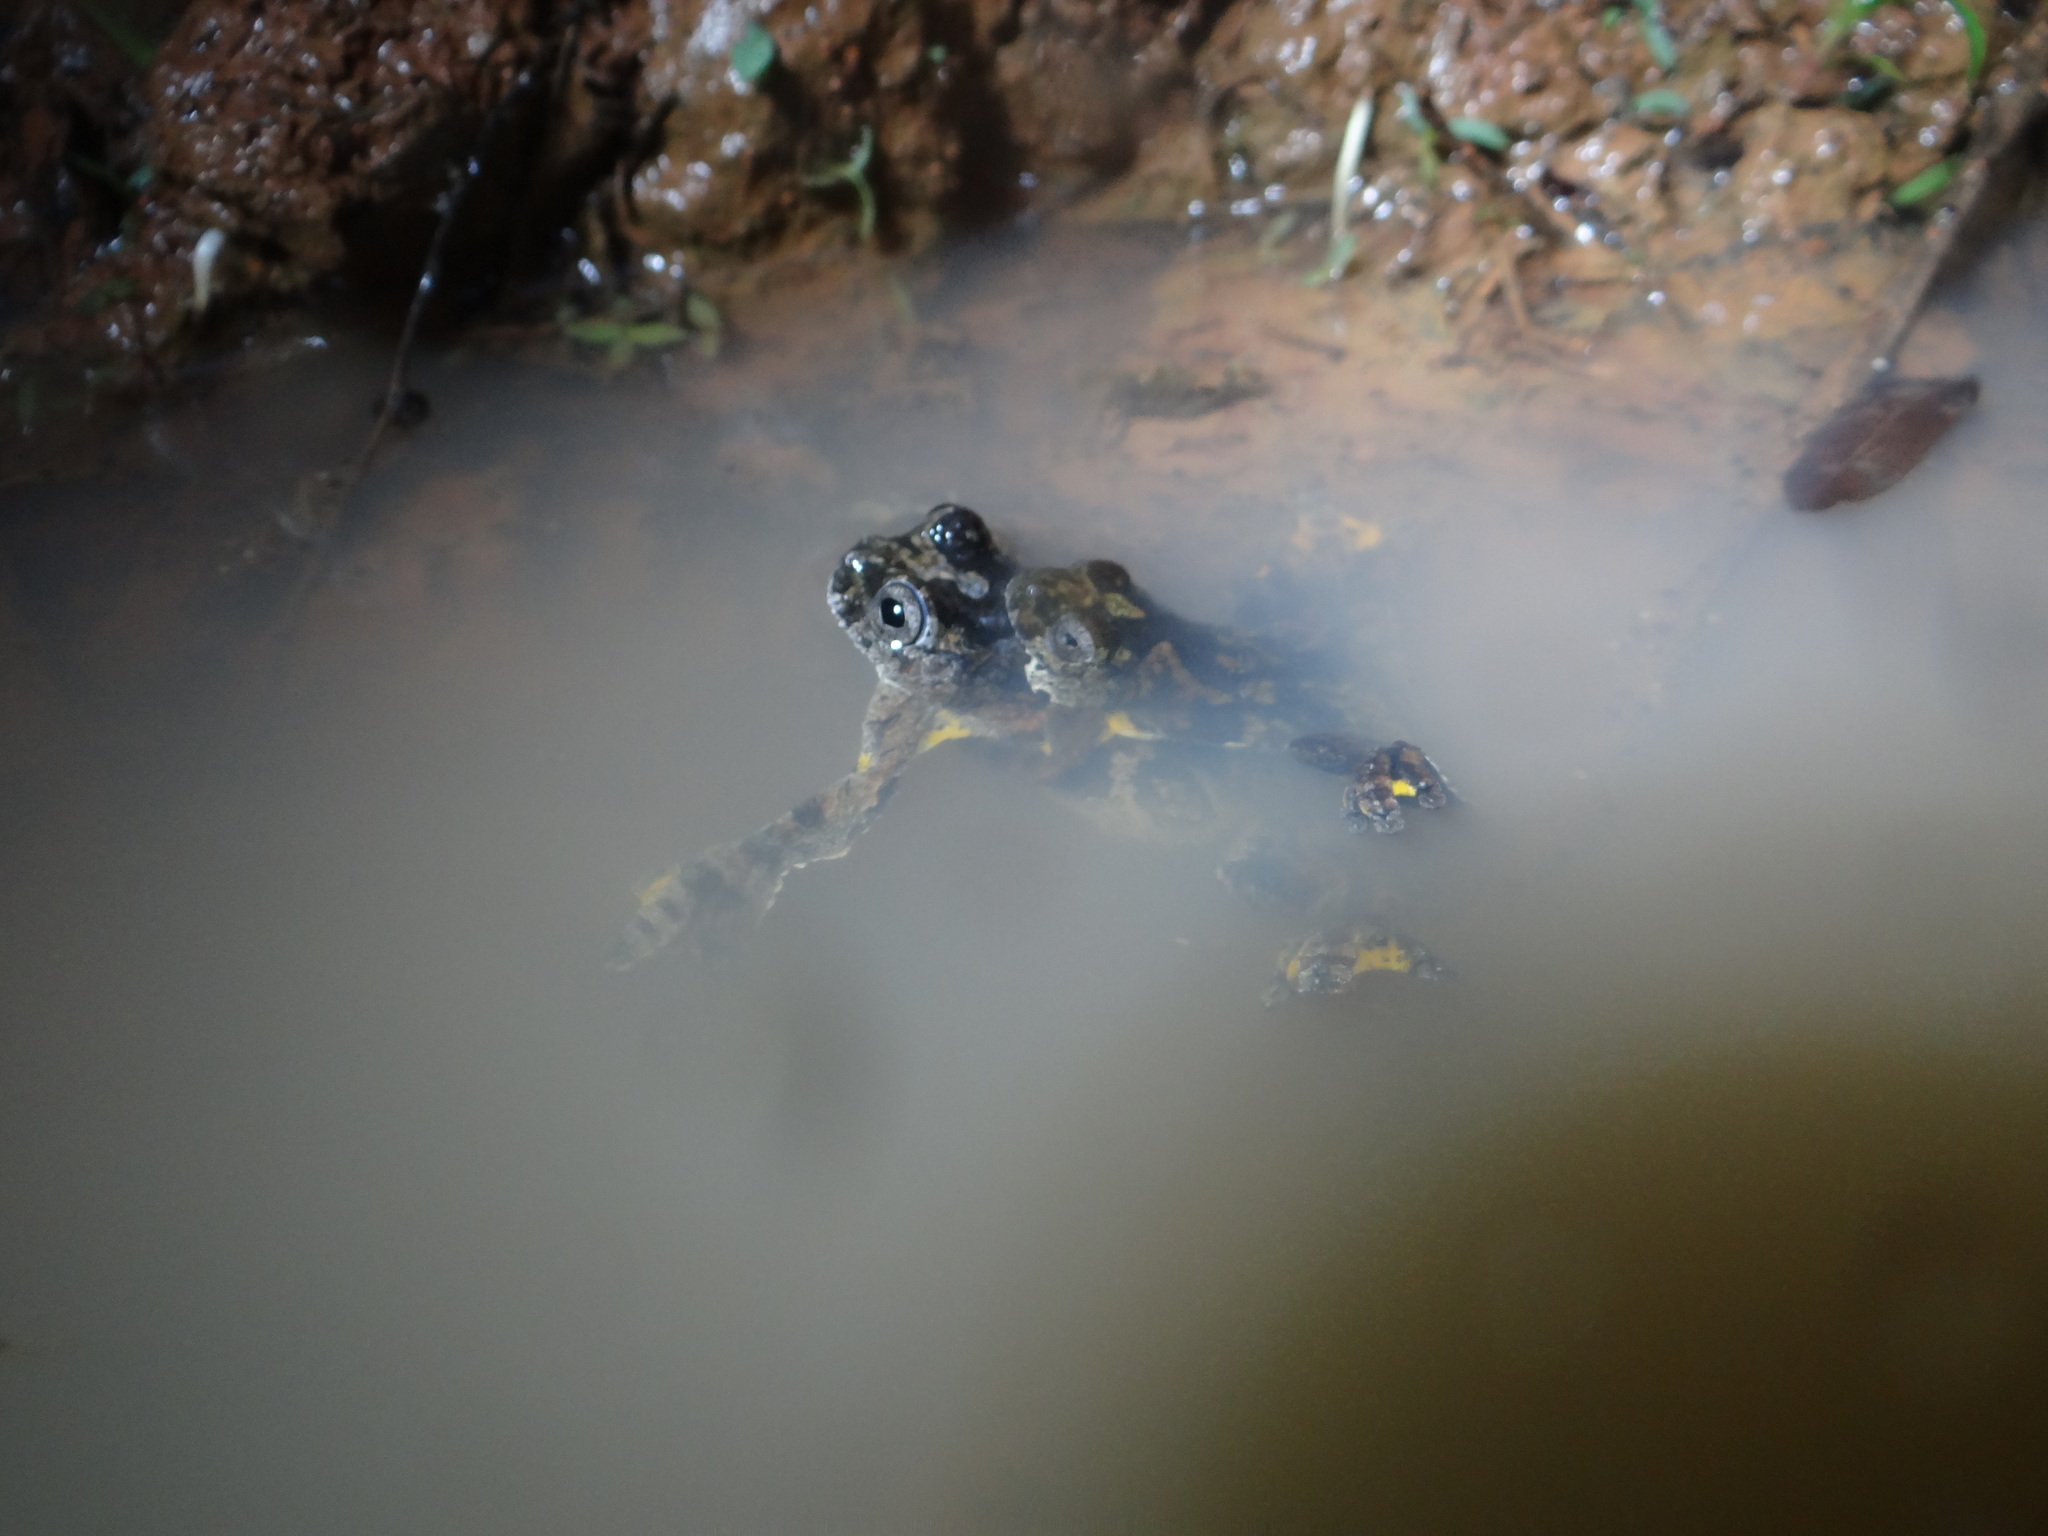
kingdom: Animalia
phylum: Chordata
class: Amphibia
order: Anura
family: Hylidae
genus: Dendropsophus
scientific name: Dendropsophus marmoratus
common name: Marbled treefrog
